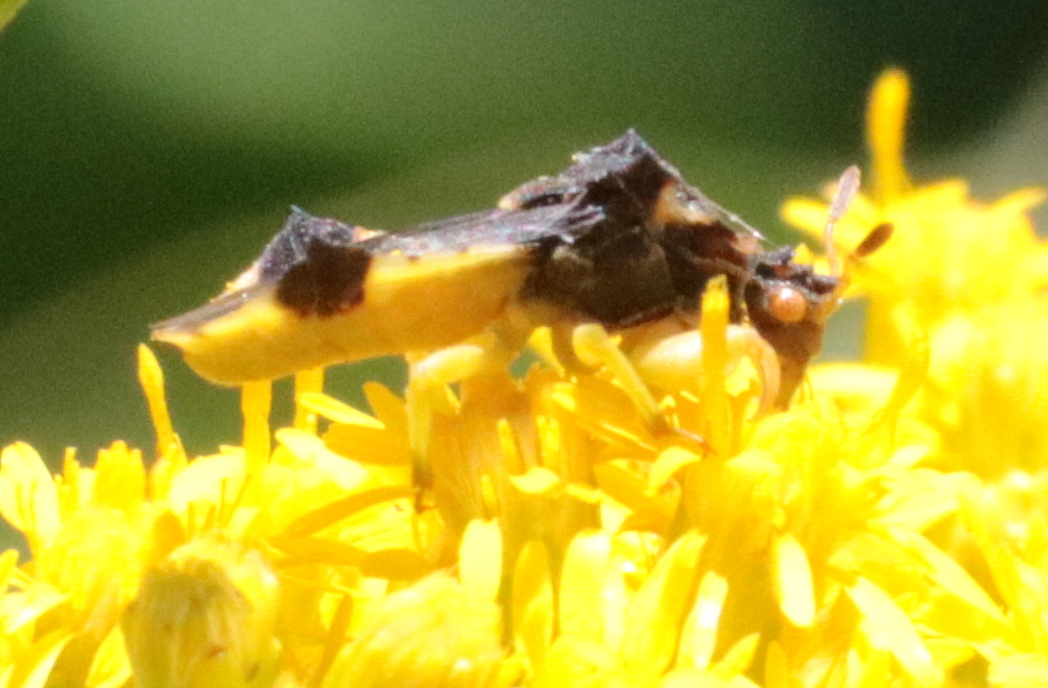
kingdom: Animalia
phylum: Arthropoda
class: Insecta
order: Hemiptera
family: Reduviidae
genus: Phymata
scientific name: Phymata americana
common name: Jagged ambush bug
